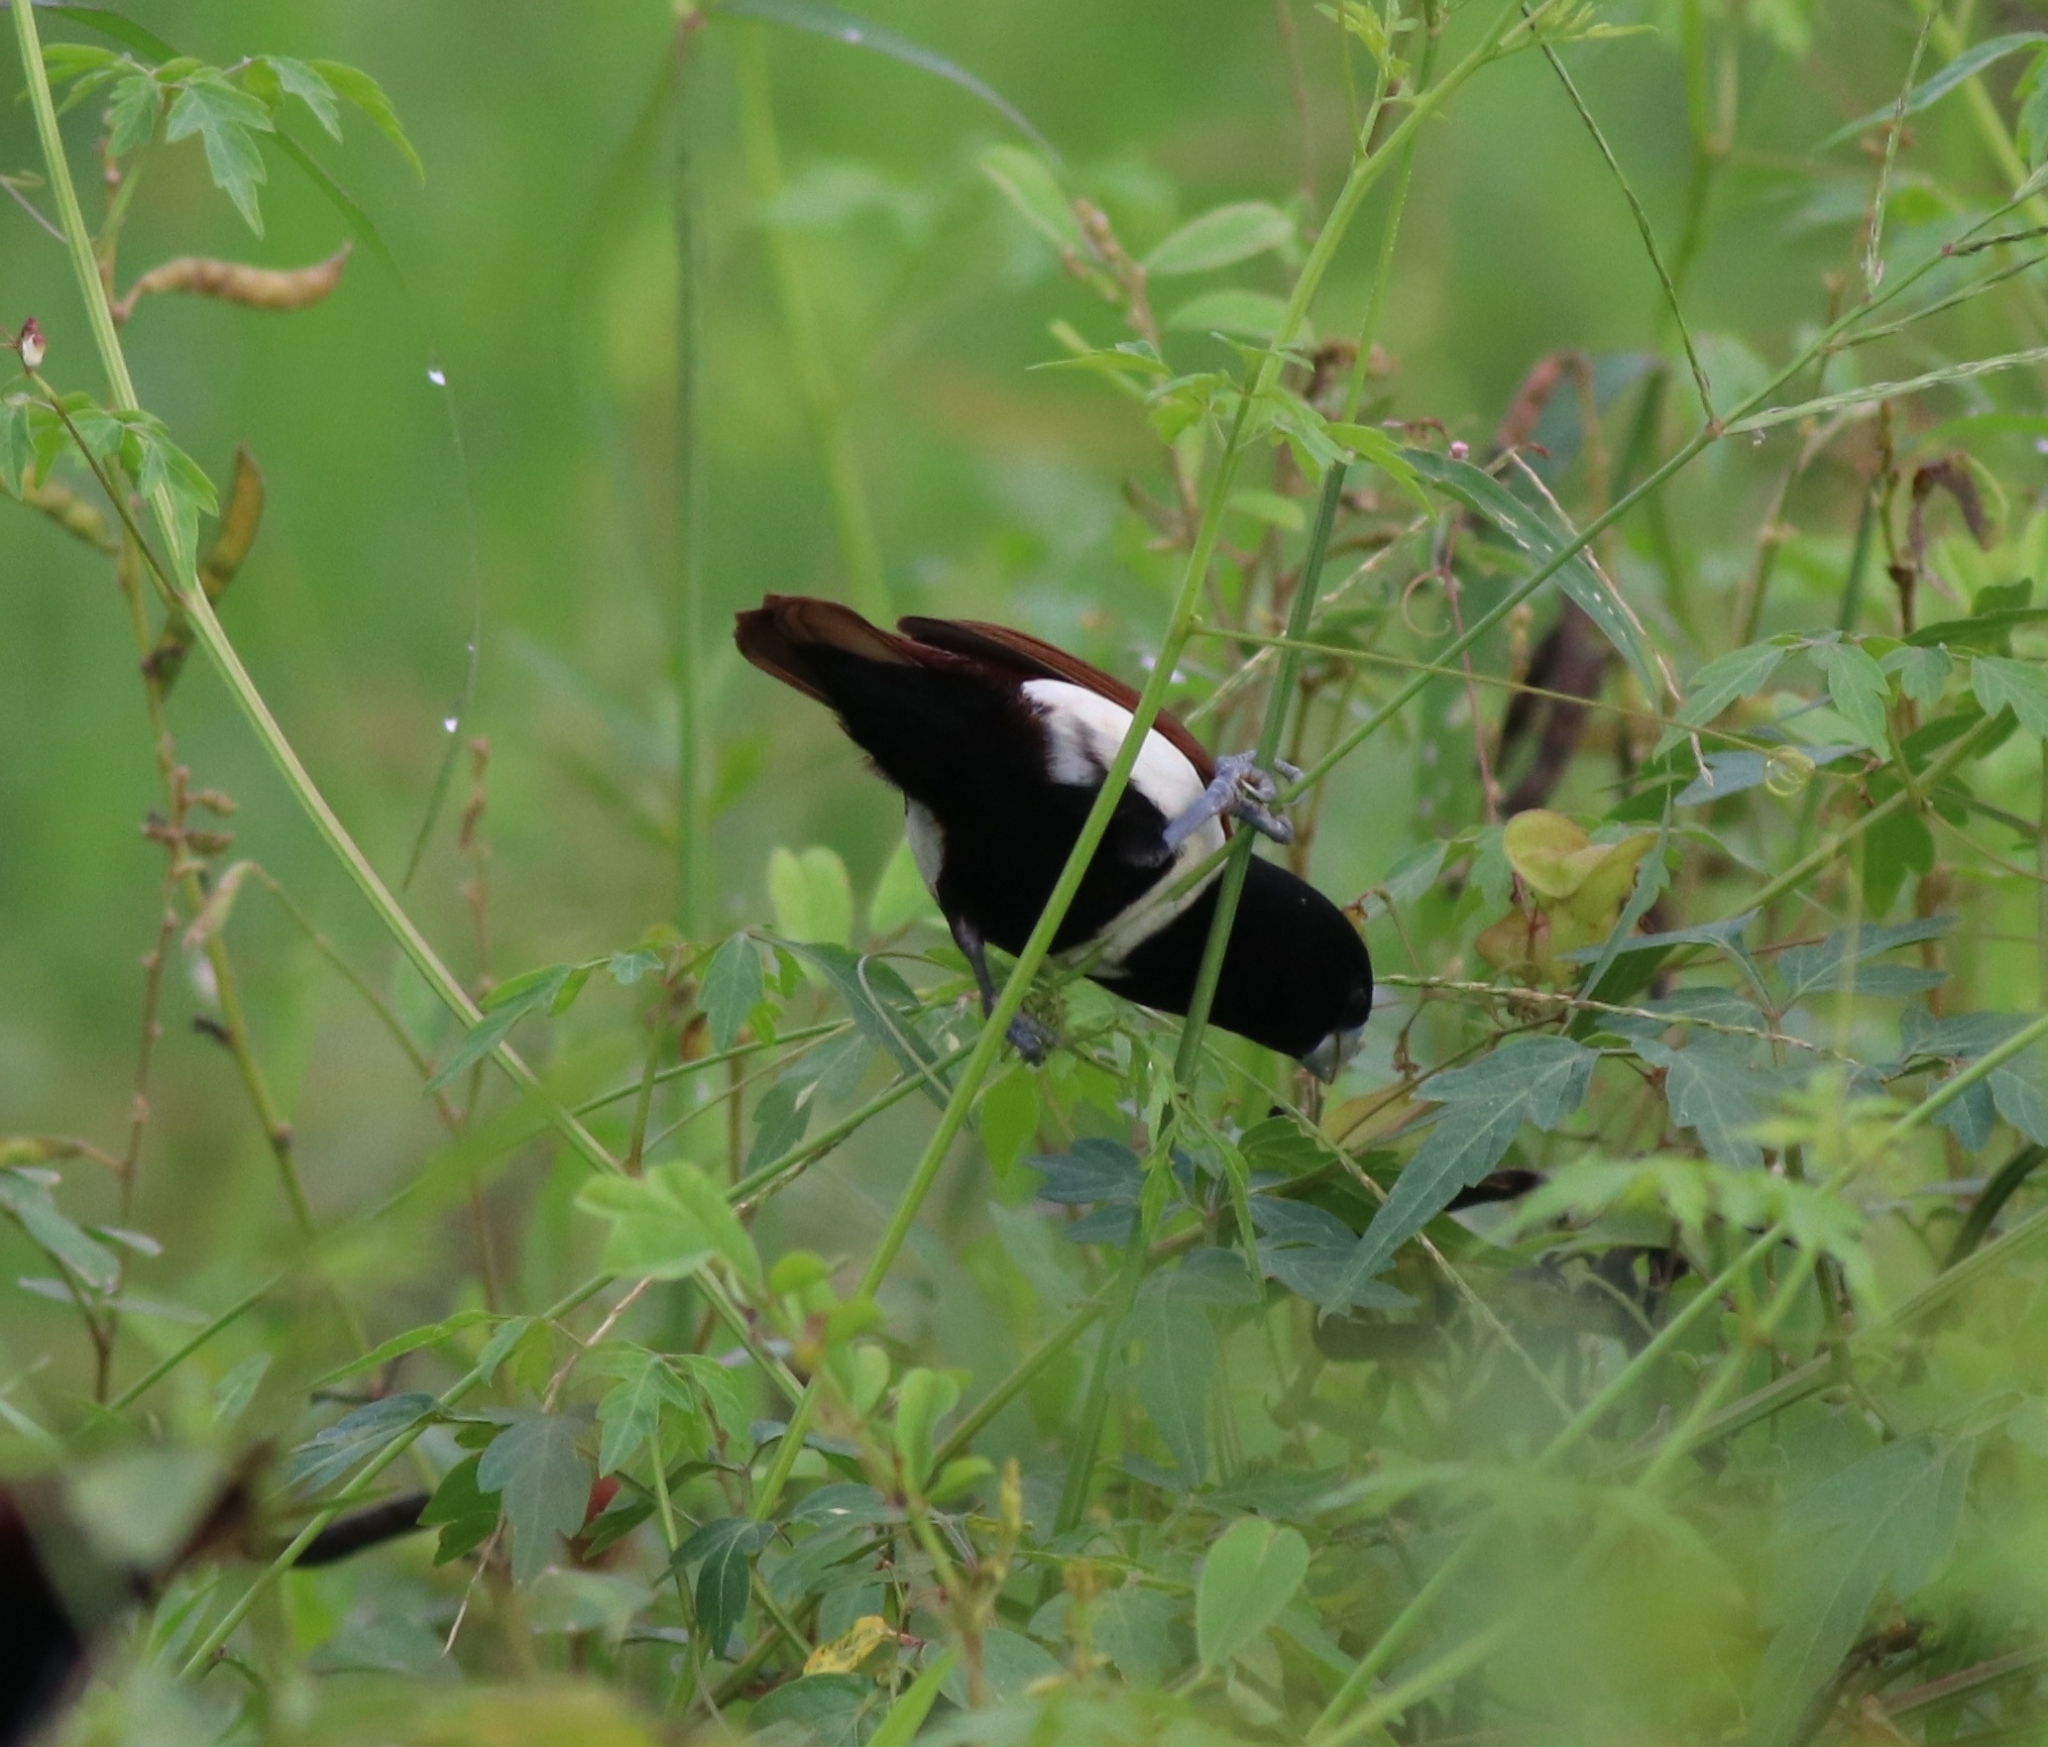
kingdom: Animalia
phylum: Chordata
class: Aves
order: Passeriformes
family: Estrildidae
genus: Lonchura
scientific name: Lonchura malacca
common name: Tricolored munia
